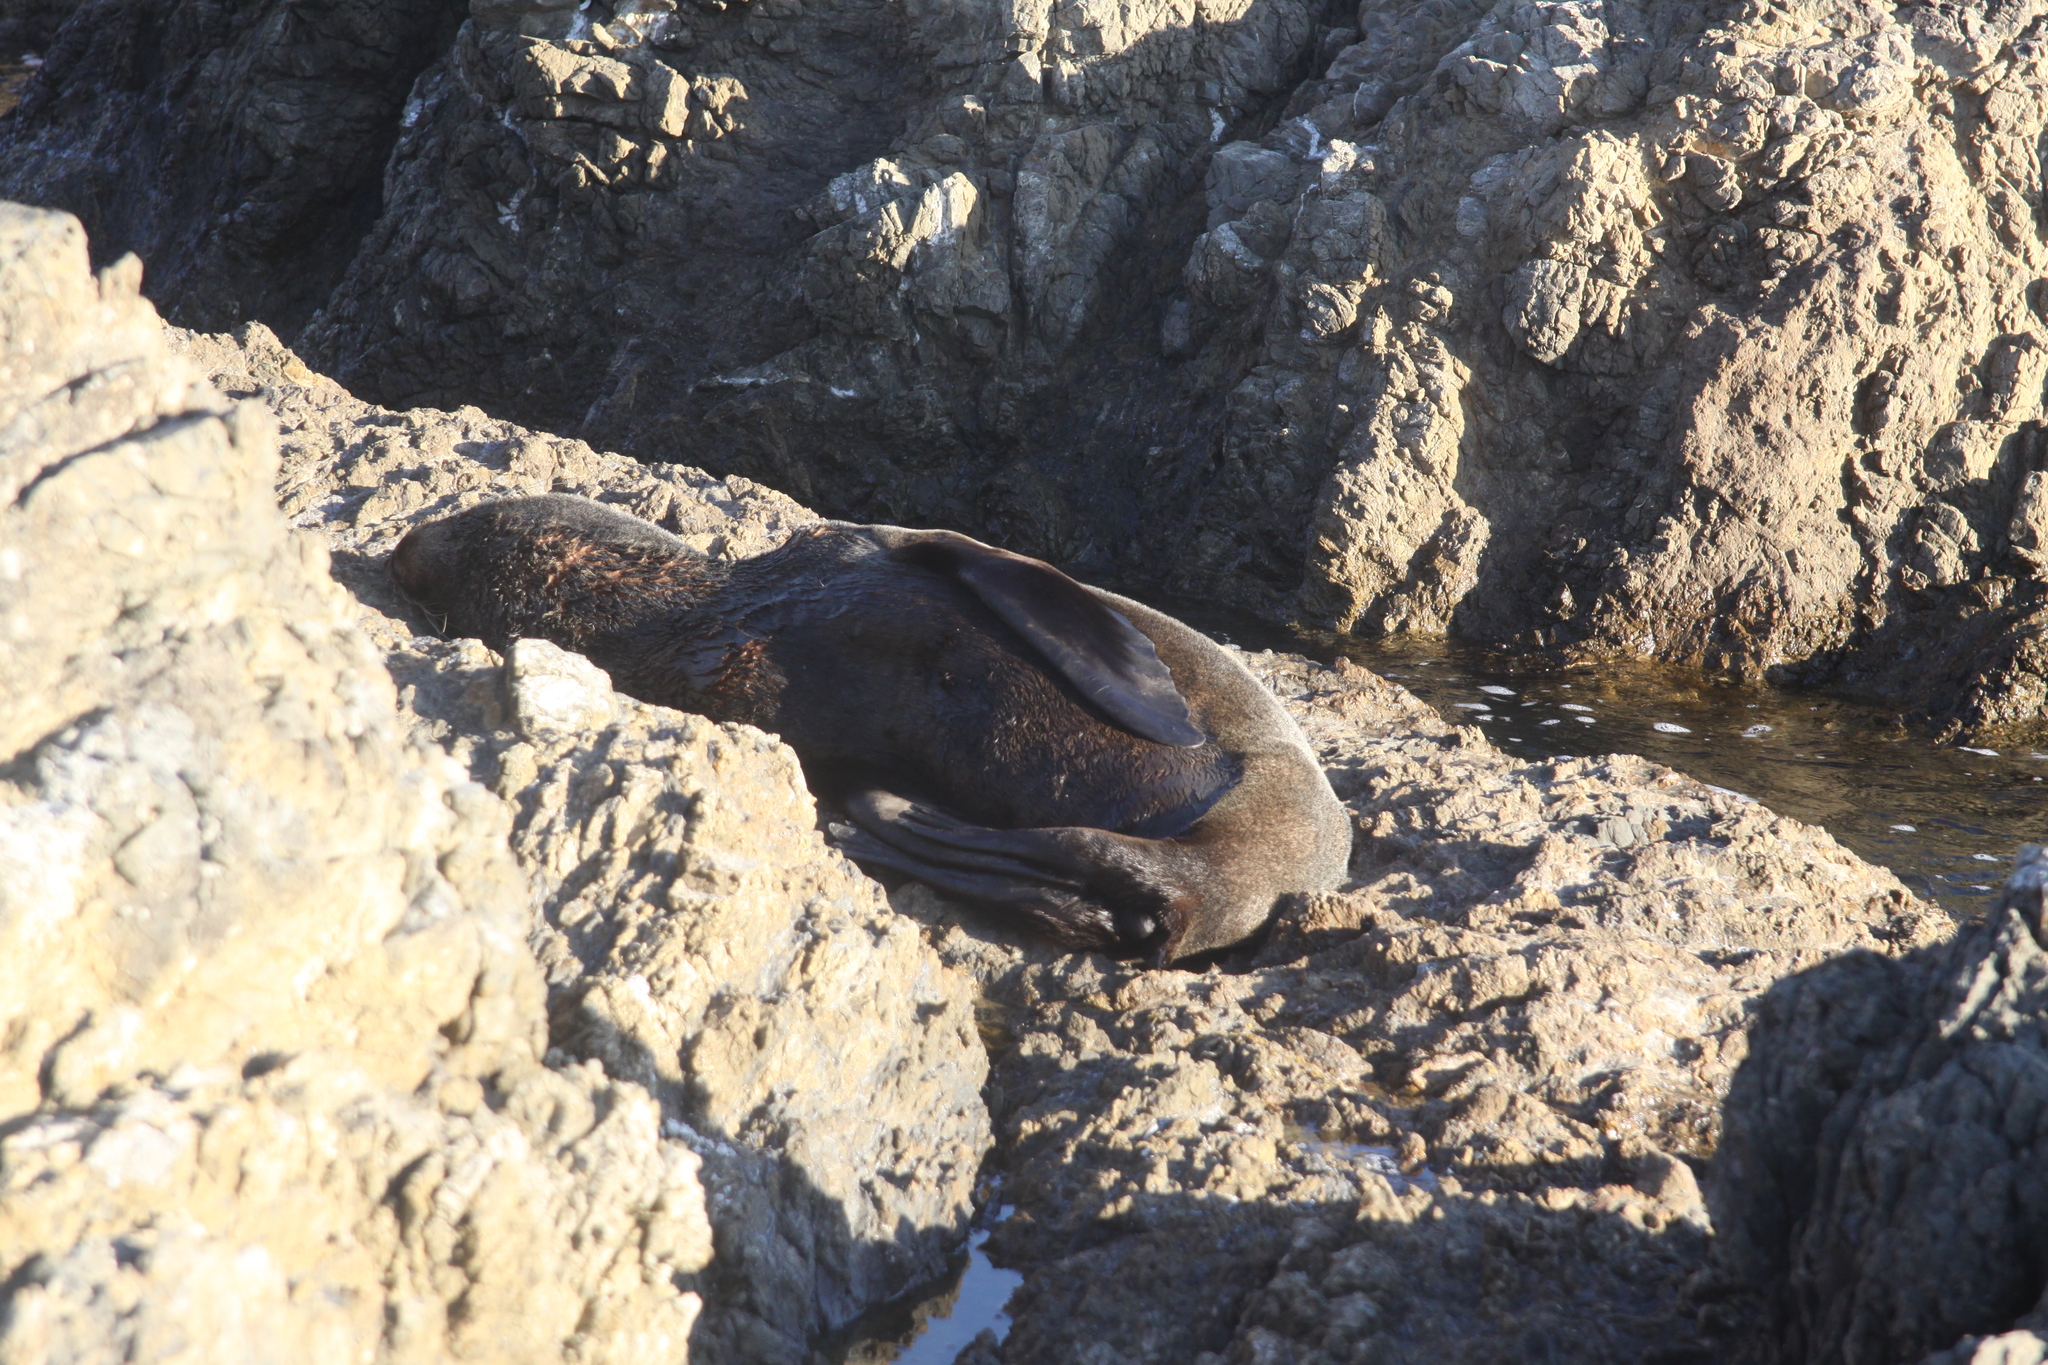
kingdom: Animalia
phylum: Chordata
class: Mammalia
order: Carnivora
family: Otariidae
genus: Arctocephalus
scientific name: Arctocephalus forsteri
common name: New zealand fur seal
